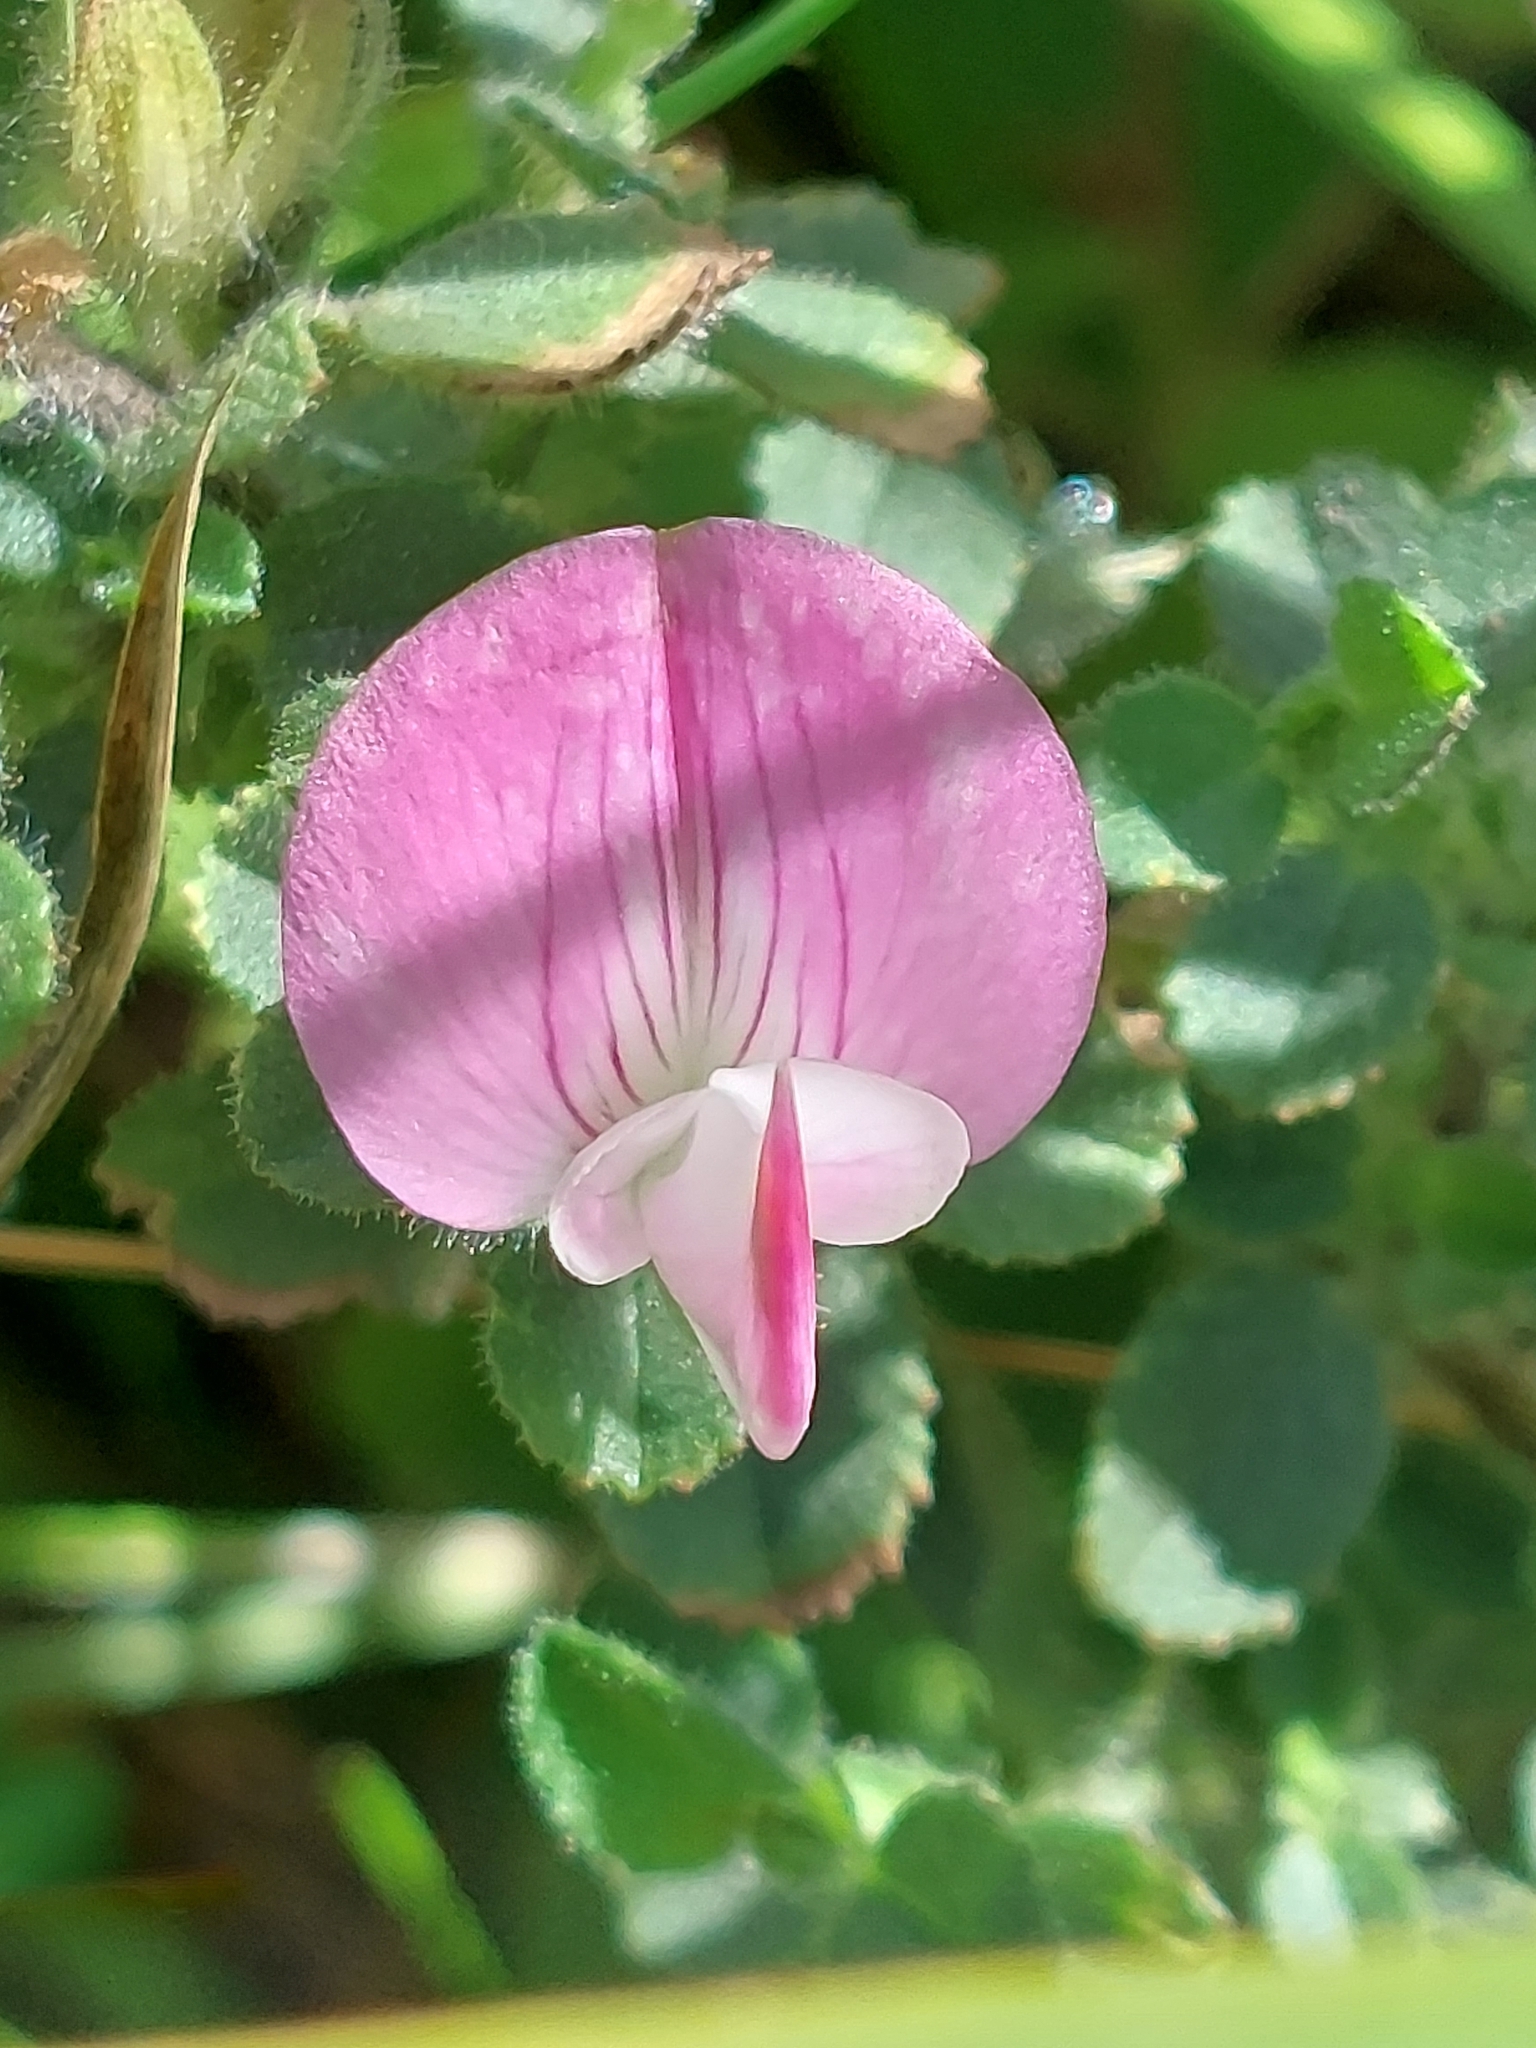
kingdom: Plantae
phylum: Tracheophyta
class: Magnoliopsida
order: Fabales
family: Fabaceae
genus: Ononis
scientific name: Ononis spinosa
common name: Spiny restharrow
